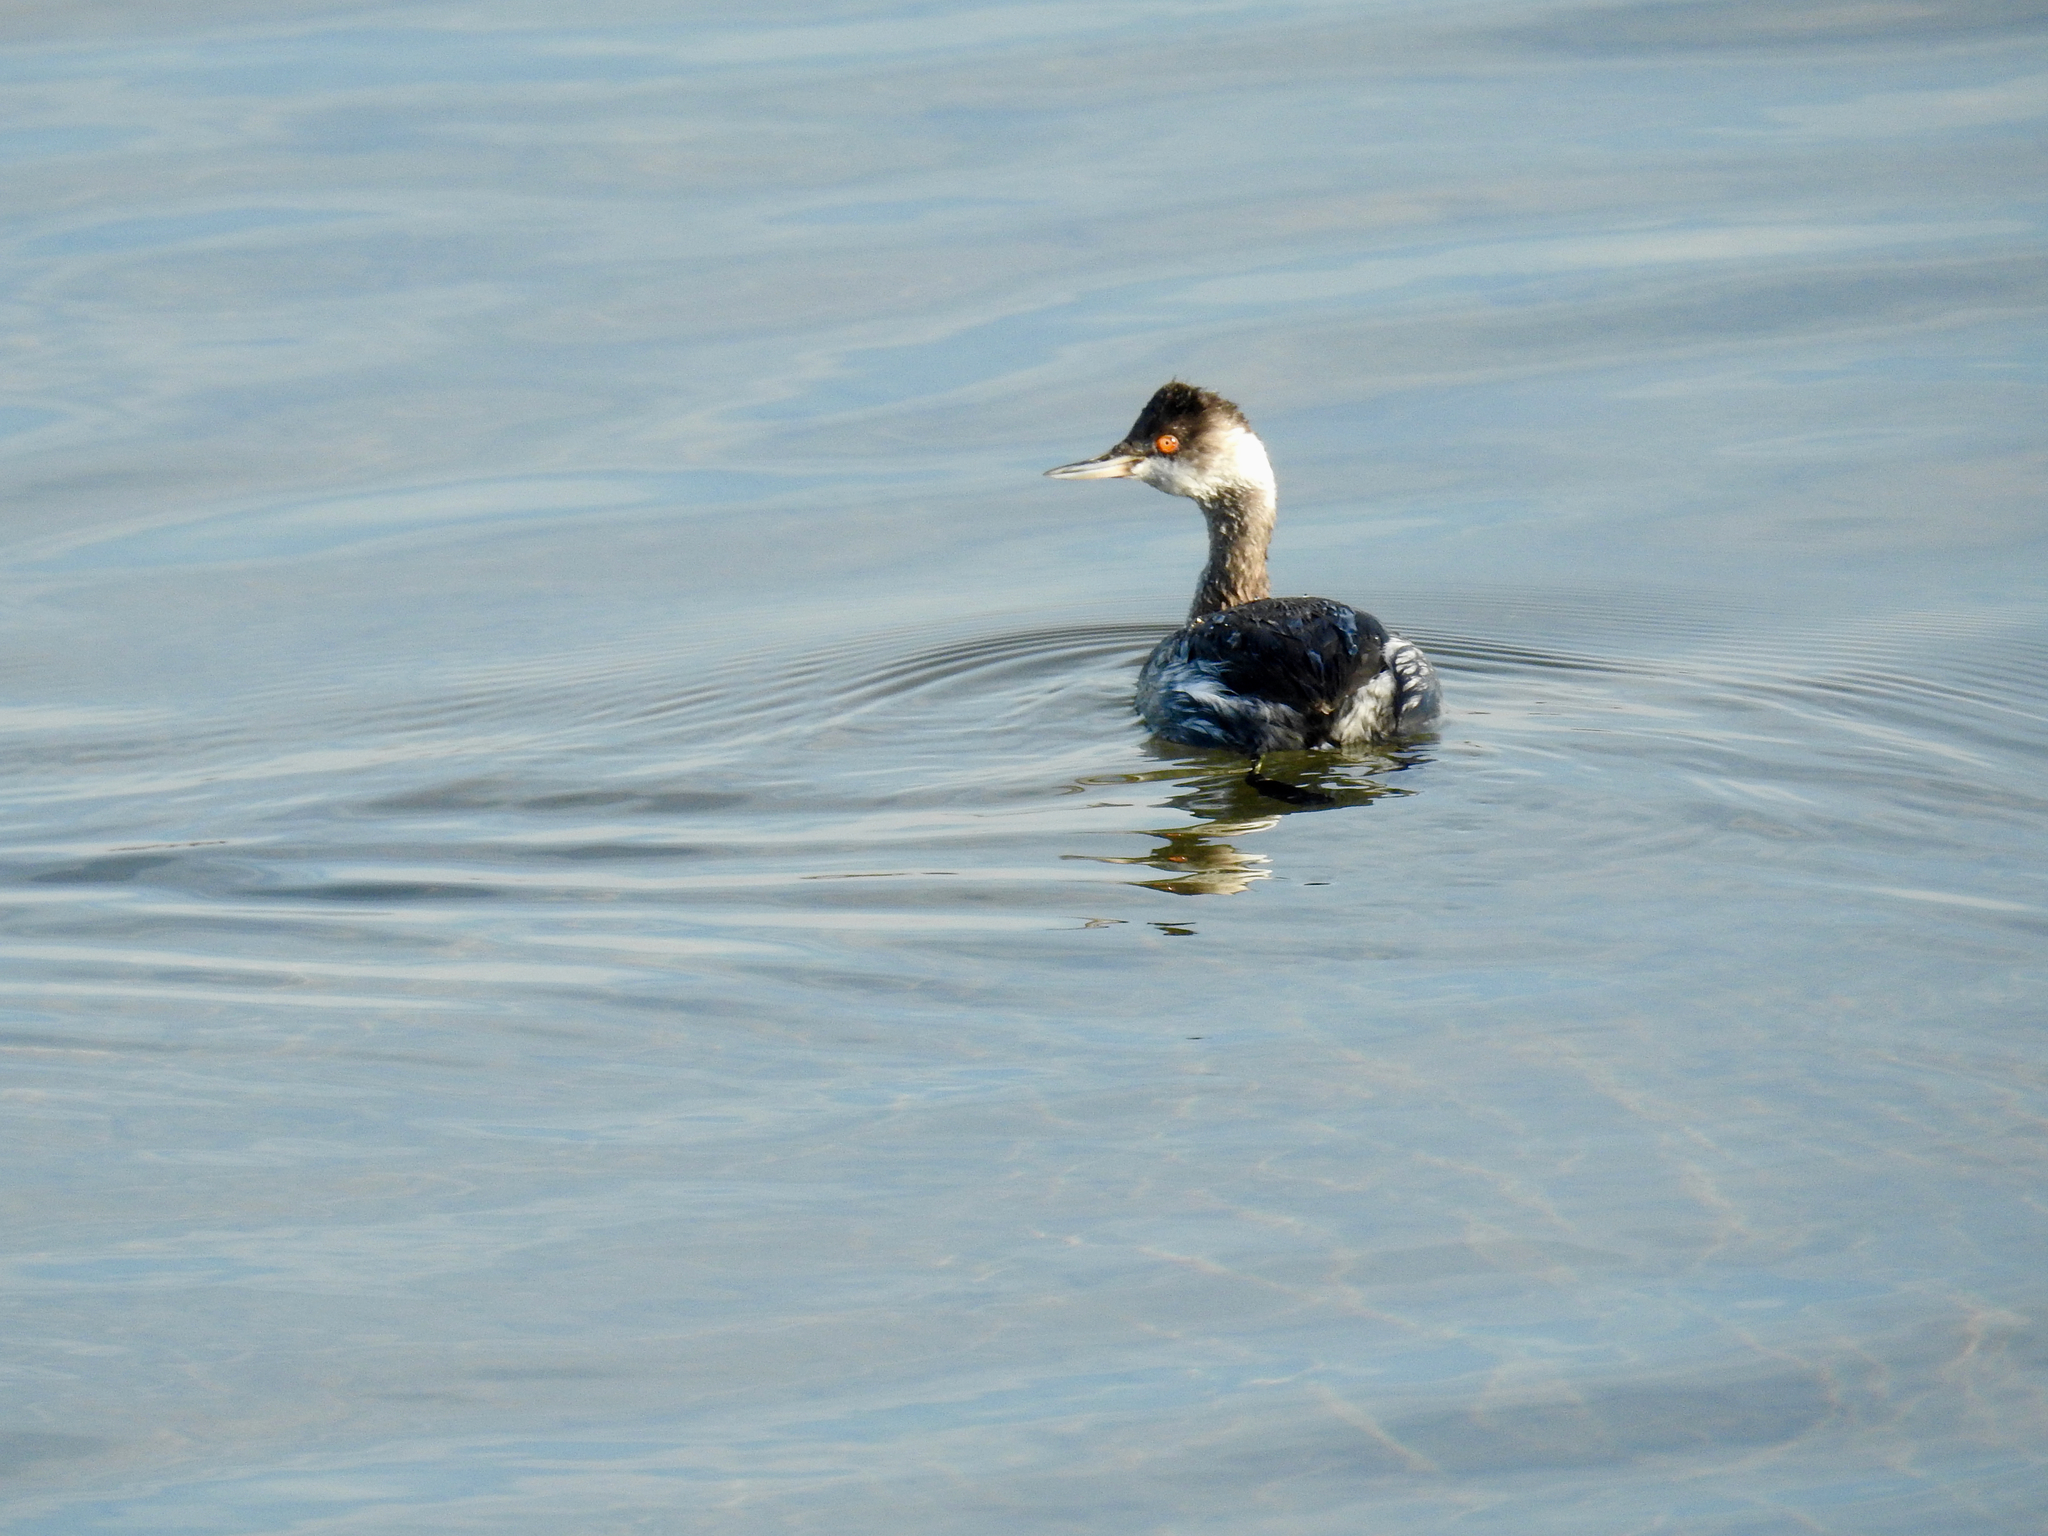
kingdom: Animalia
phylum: Chordata
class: Aves
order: Podicipediformes
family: Podicipedidae
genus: Podiceps
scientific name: Podiceps nigricollis
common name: Black-necked grebe
